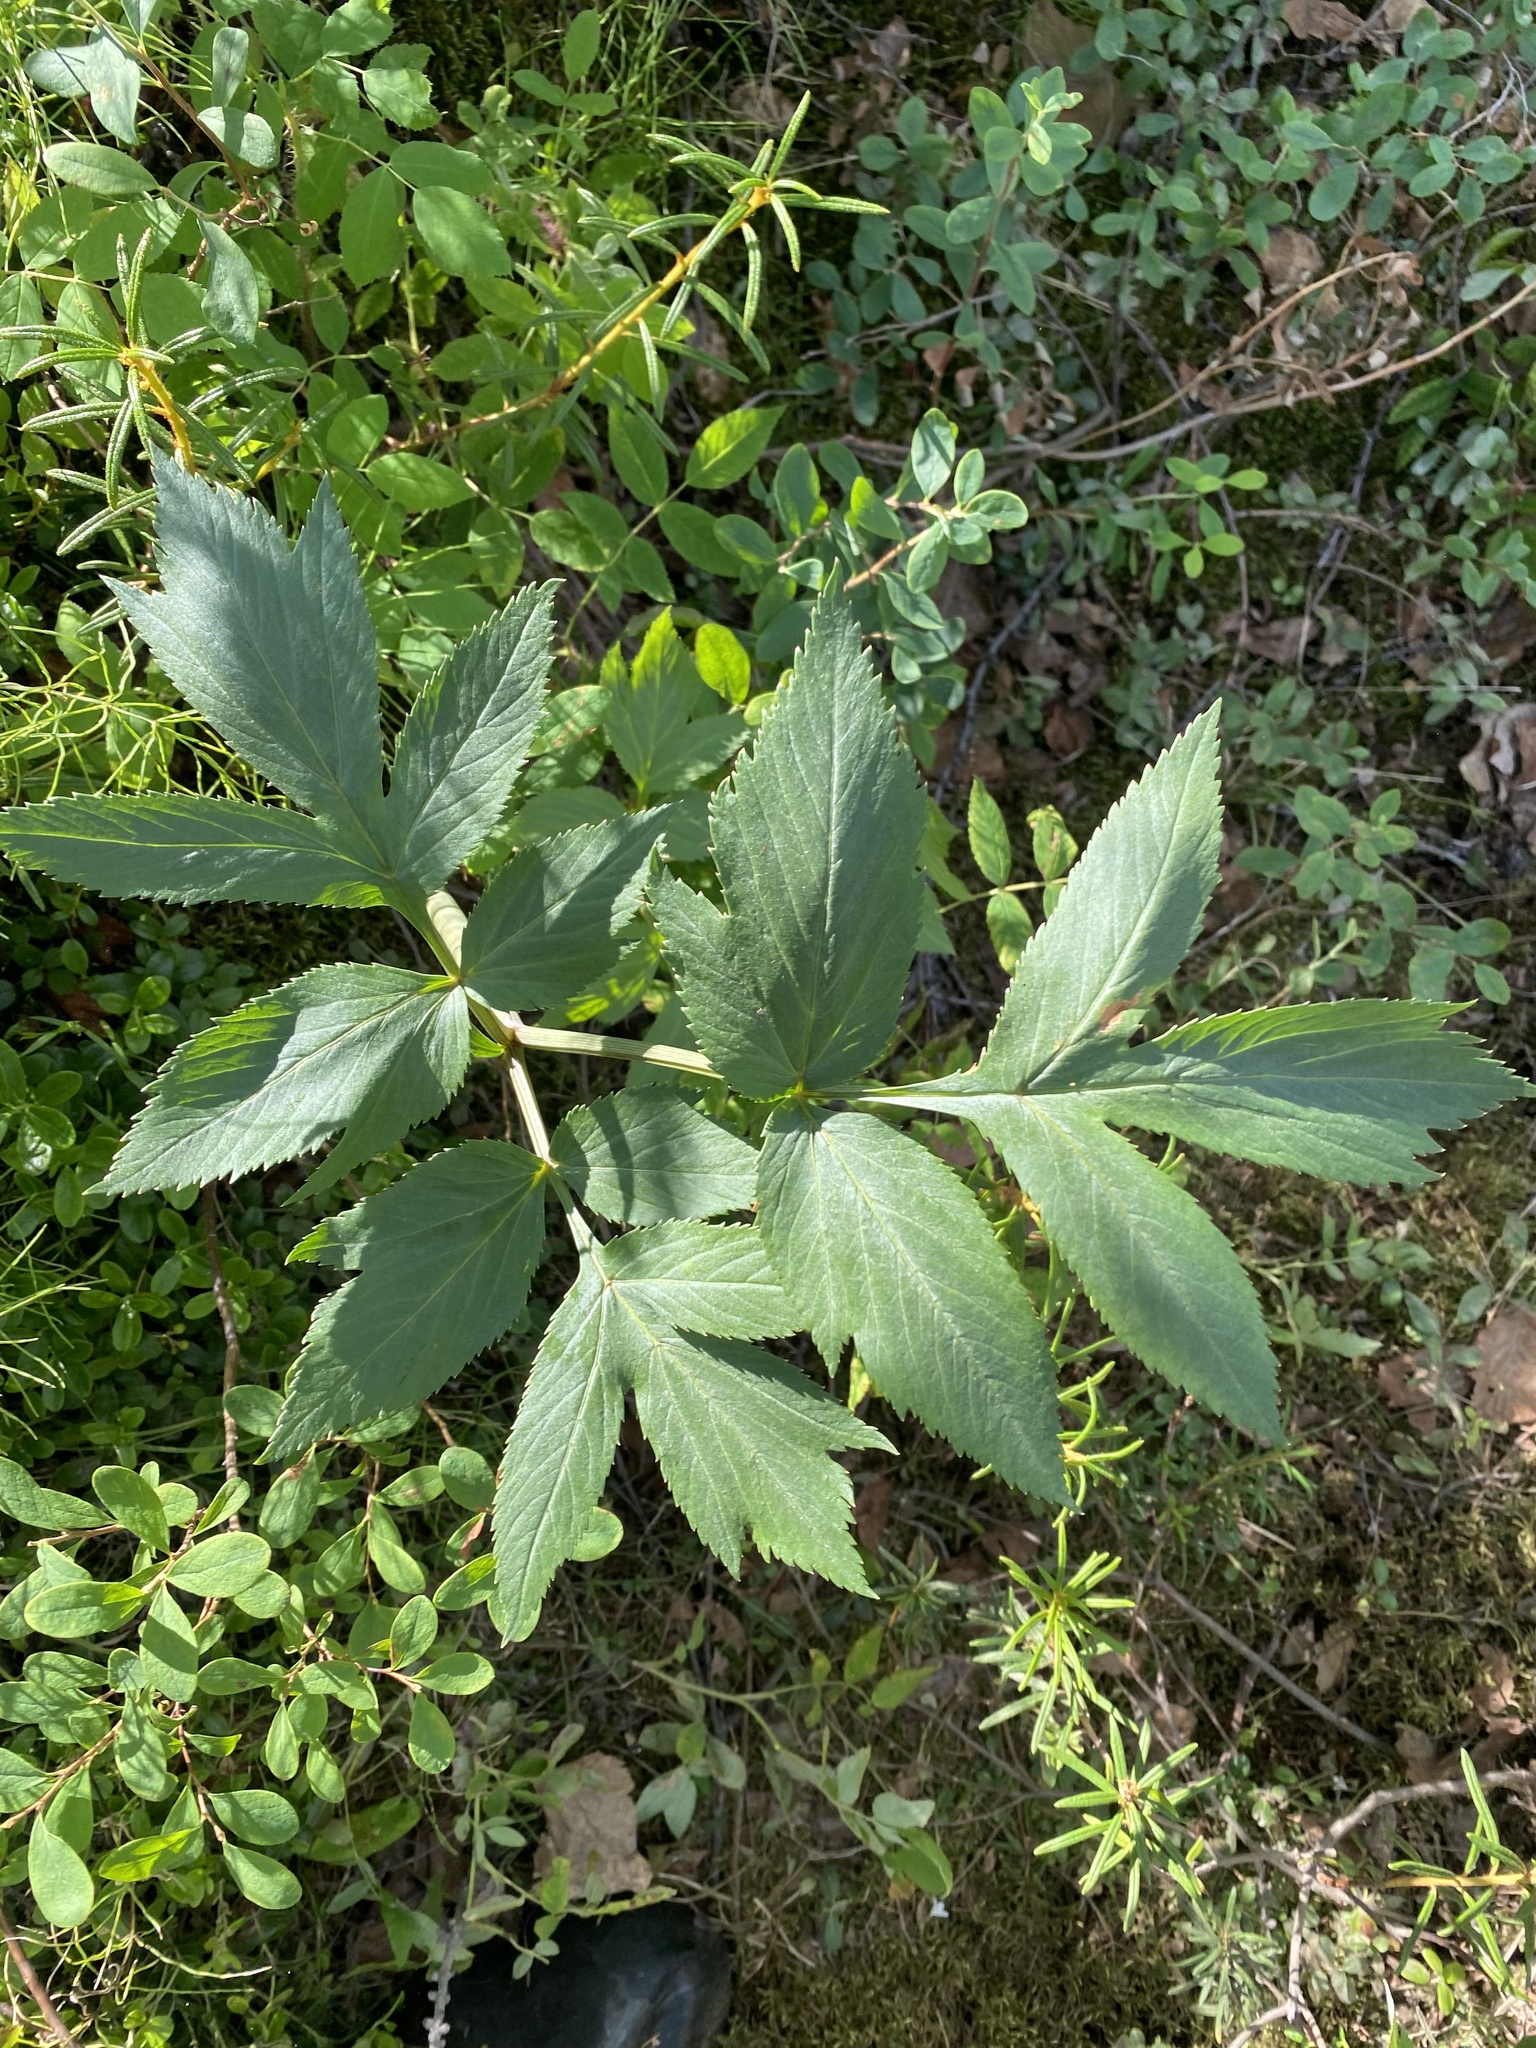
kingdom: Plantae
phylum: Tracheophyta
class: Magnoliopsida
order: Apiales
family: Apiaceae
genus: Angelica
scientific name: Angelica decurrens
